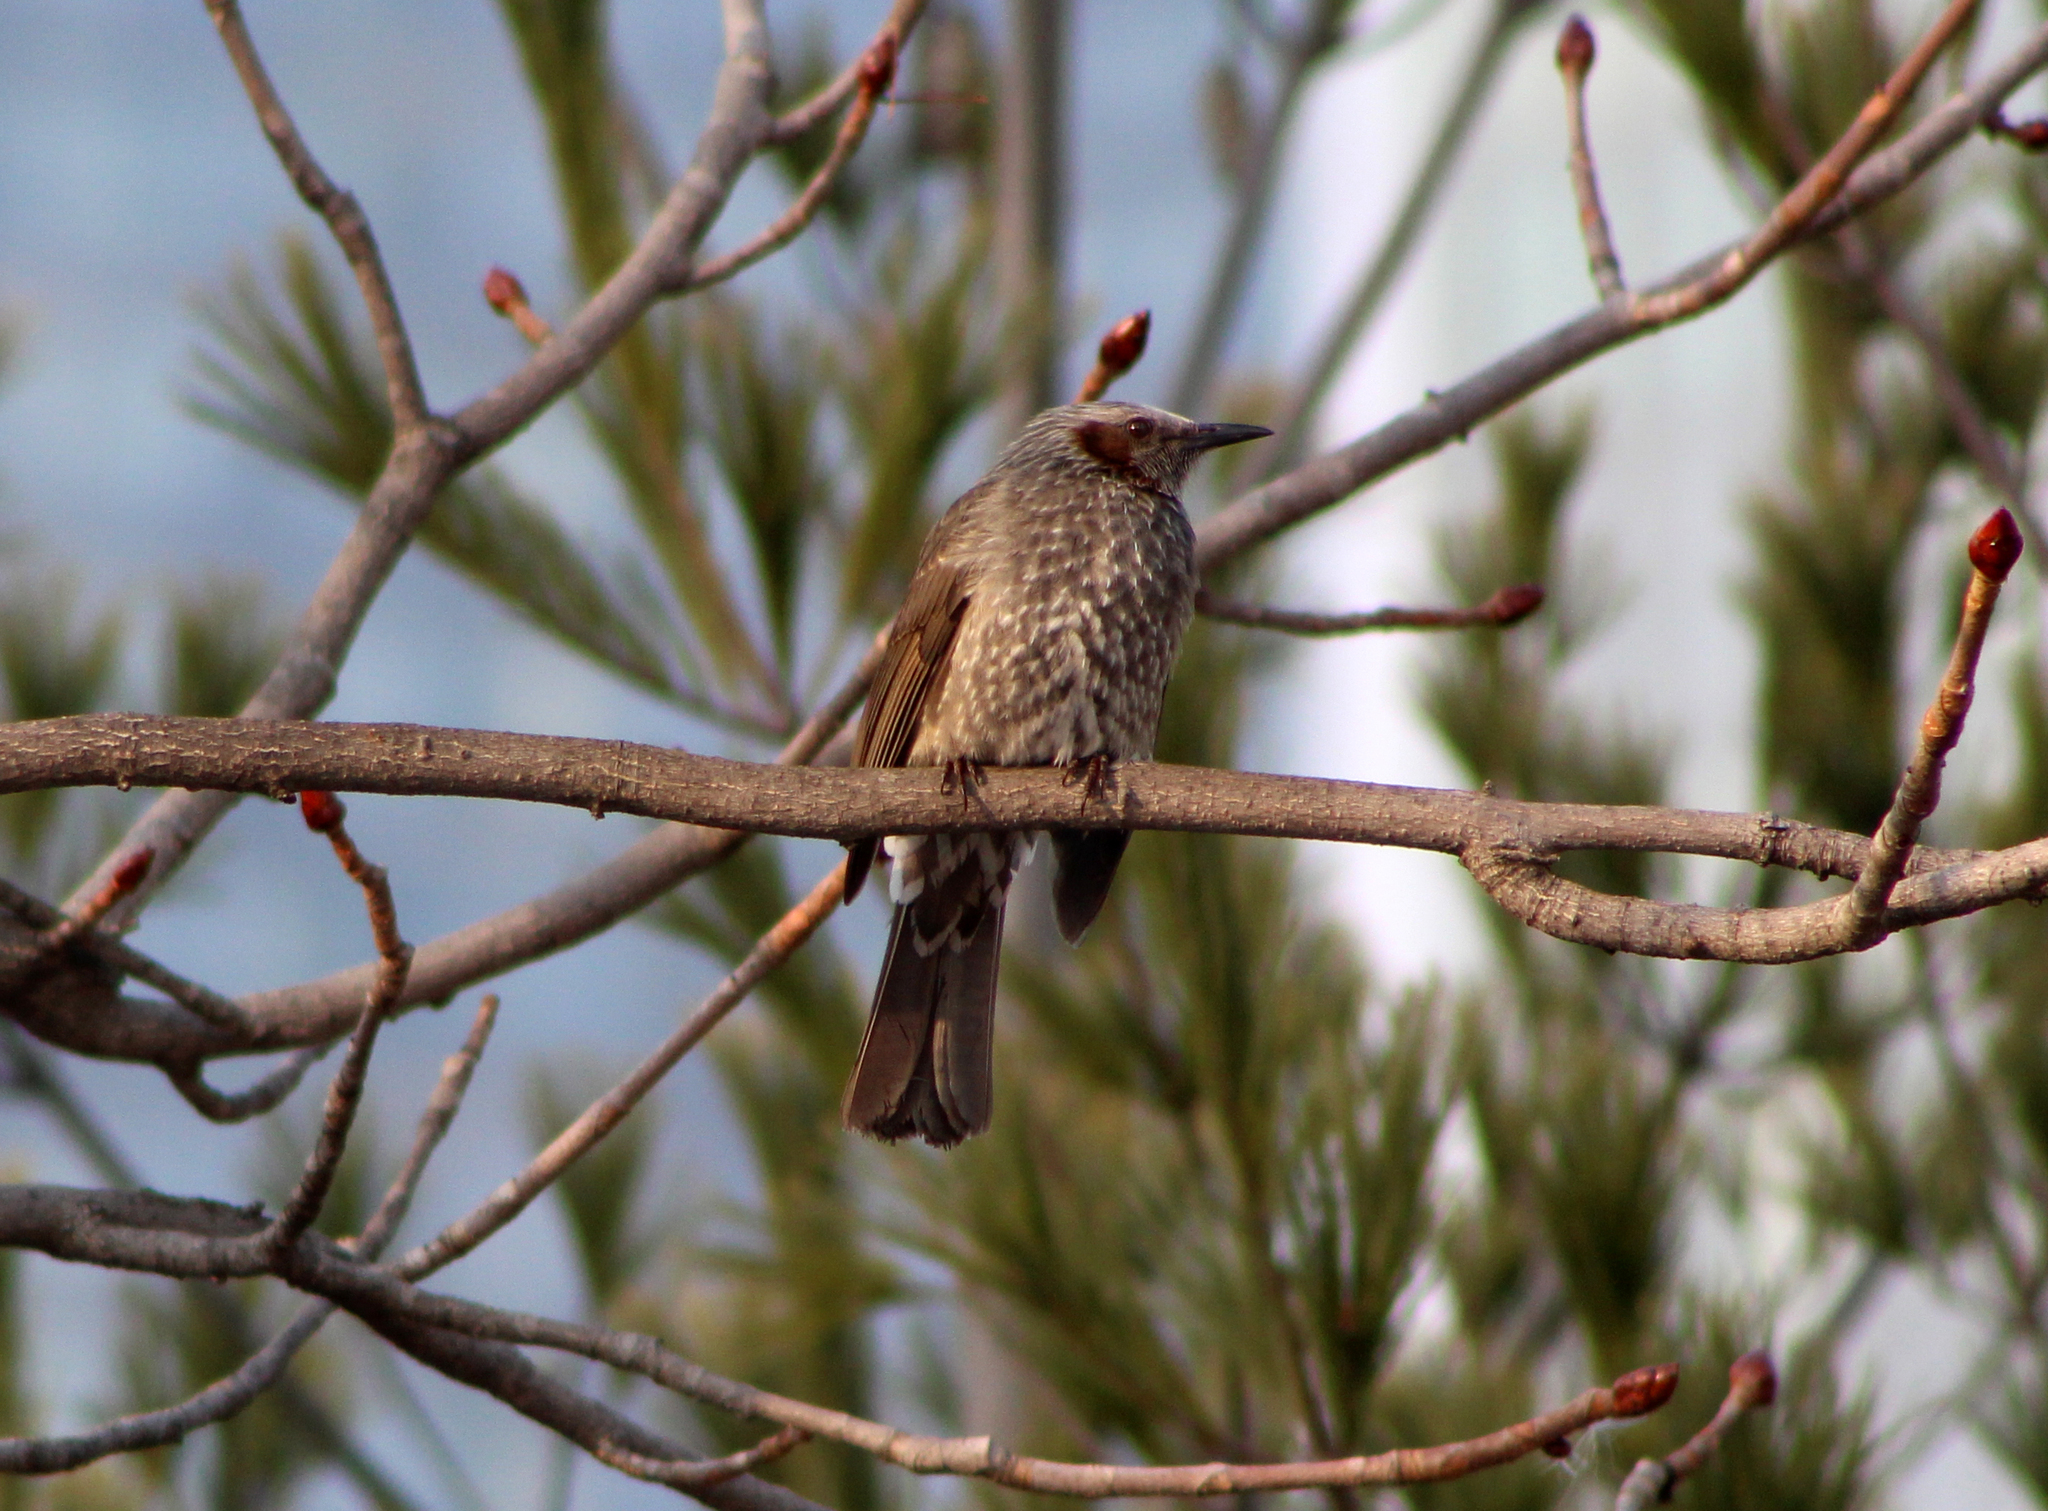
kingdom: Animalia
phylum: Chordata
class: Aves
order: Passeriformes
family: Pycnonotidae
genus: Hypsipetes
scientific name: Hypsipetes amaurotis
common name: Brown-eared bulbul
